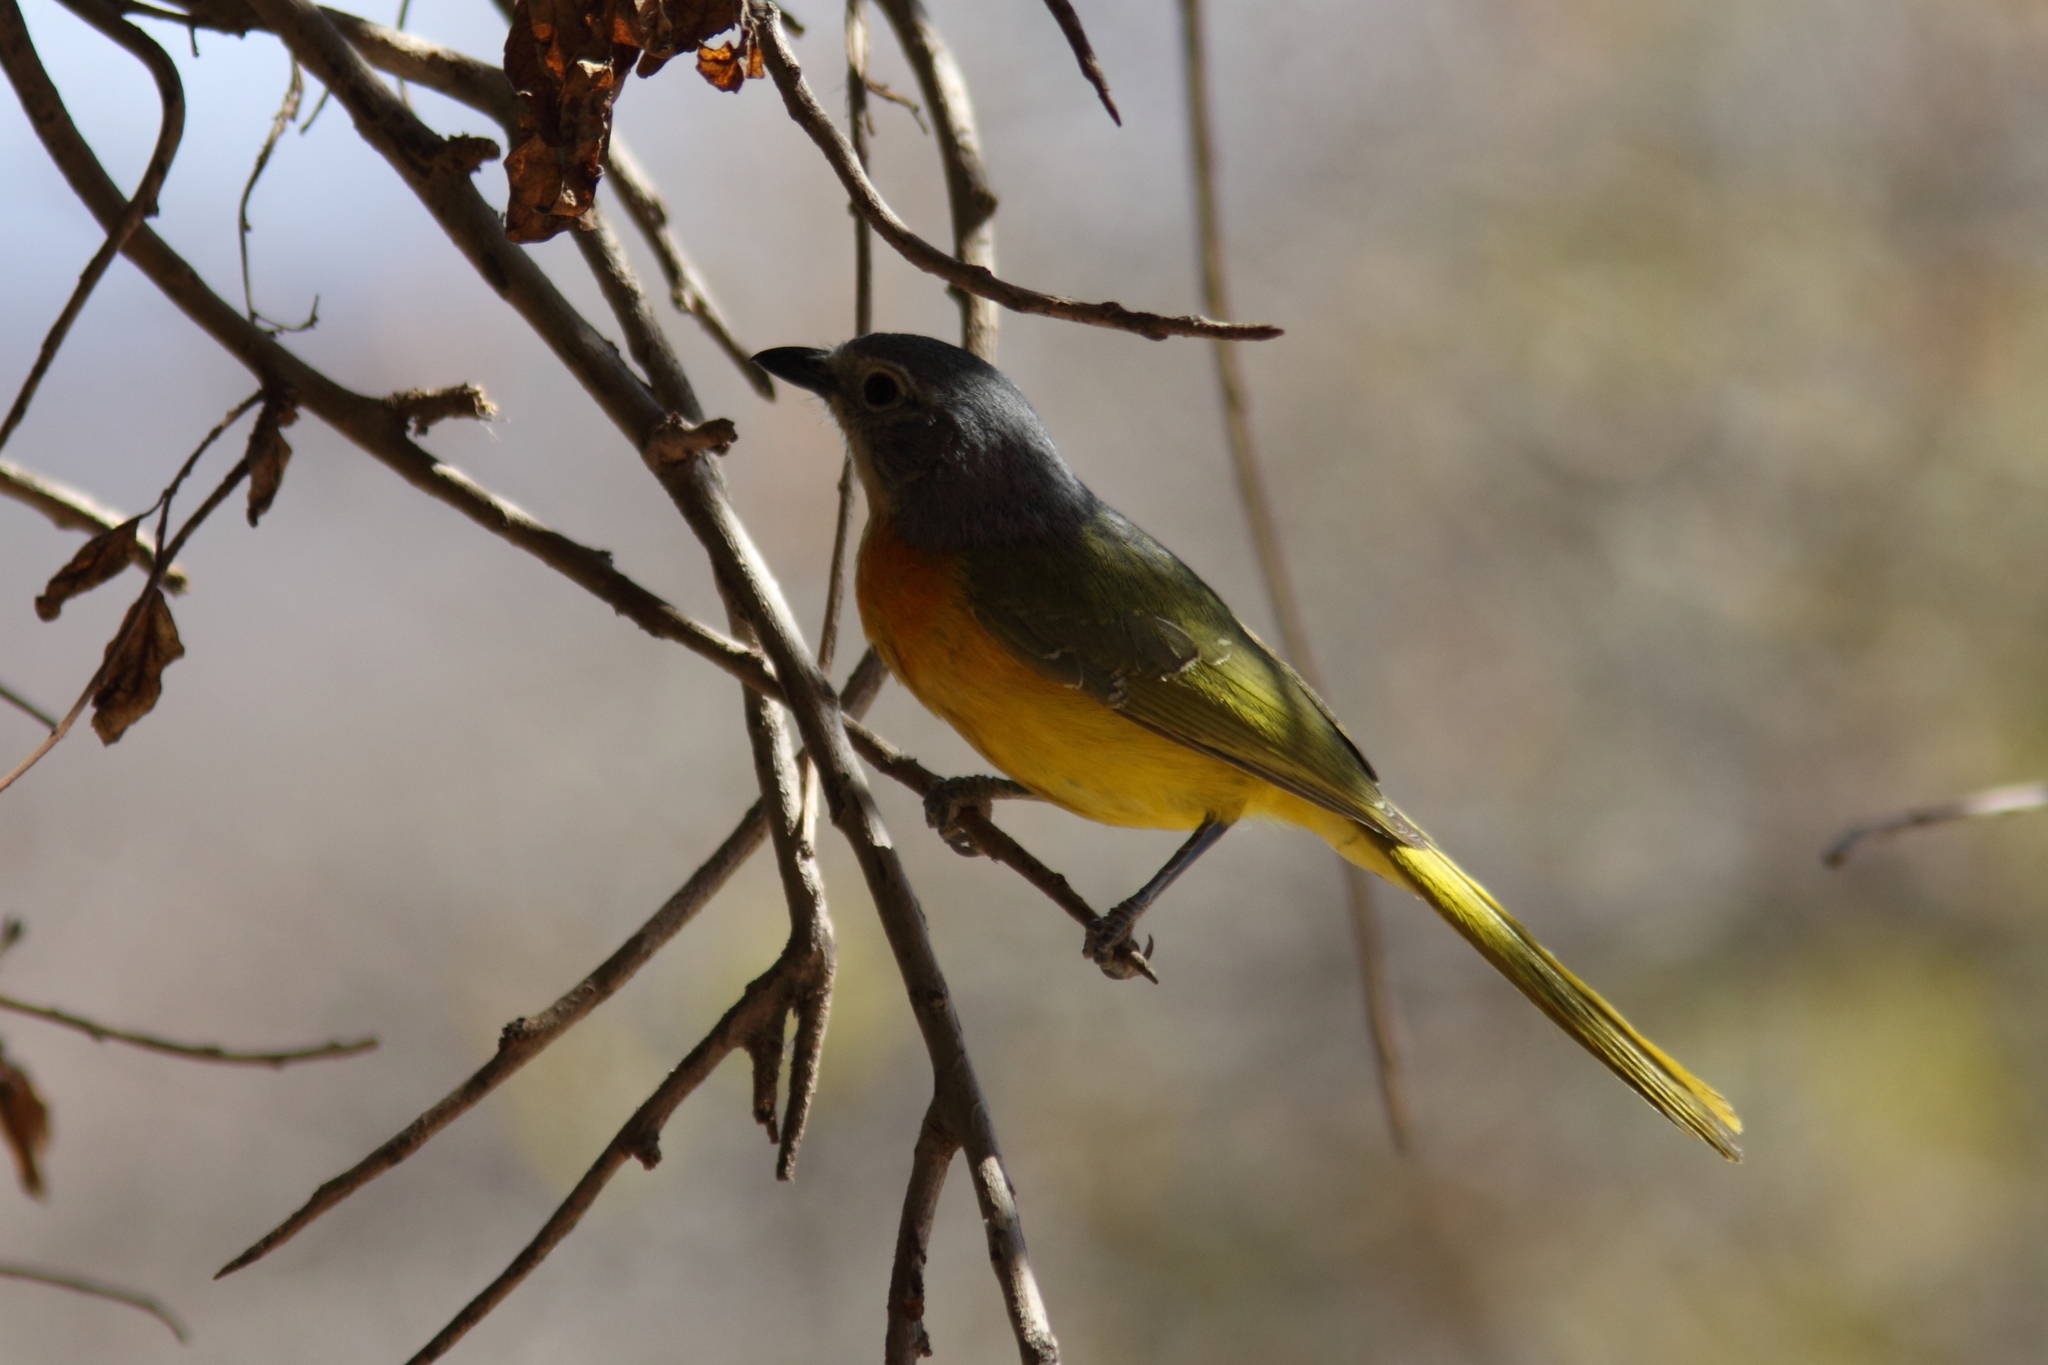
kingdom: Animalia
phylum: Chordata
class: Aves
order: Passeriformes
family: Malaconotidae
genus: Chlorophoneus
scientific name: Chlorophoneus sulfureopectus
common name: Orange-breasted bushshrike
